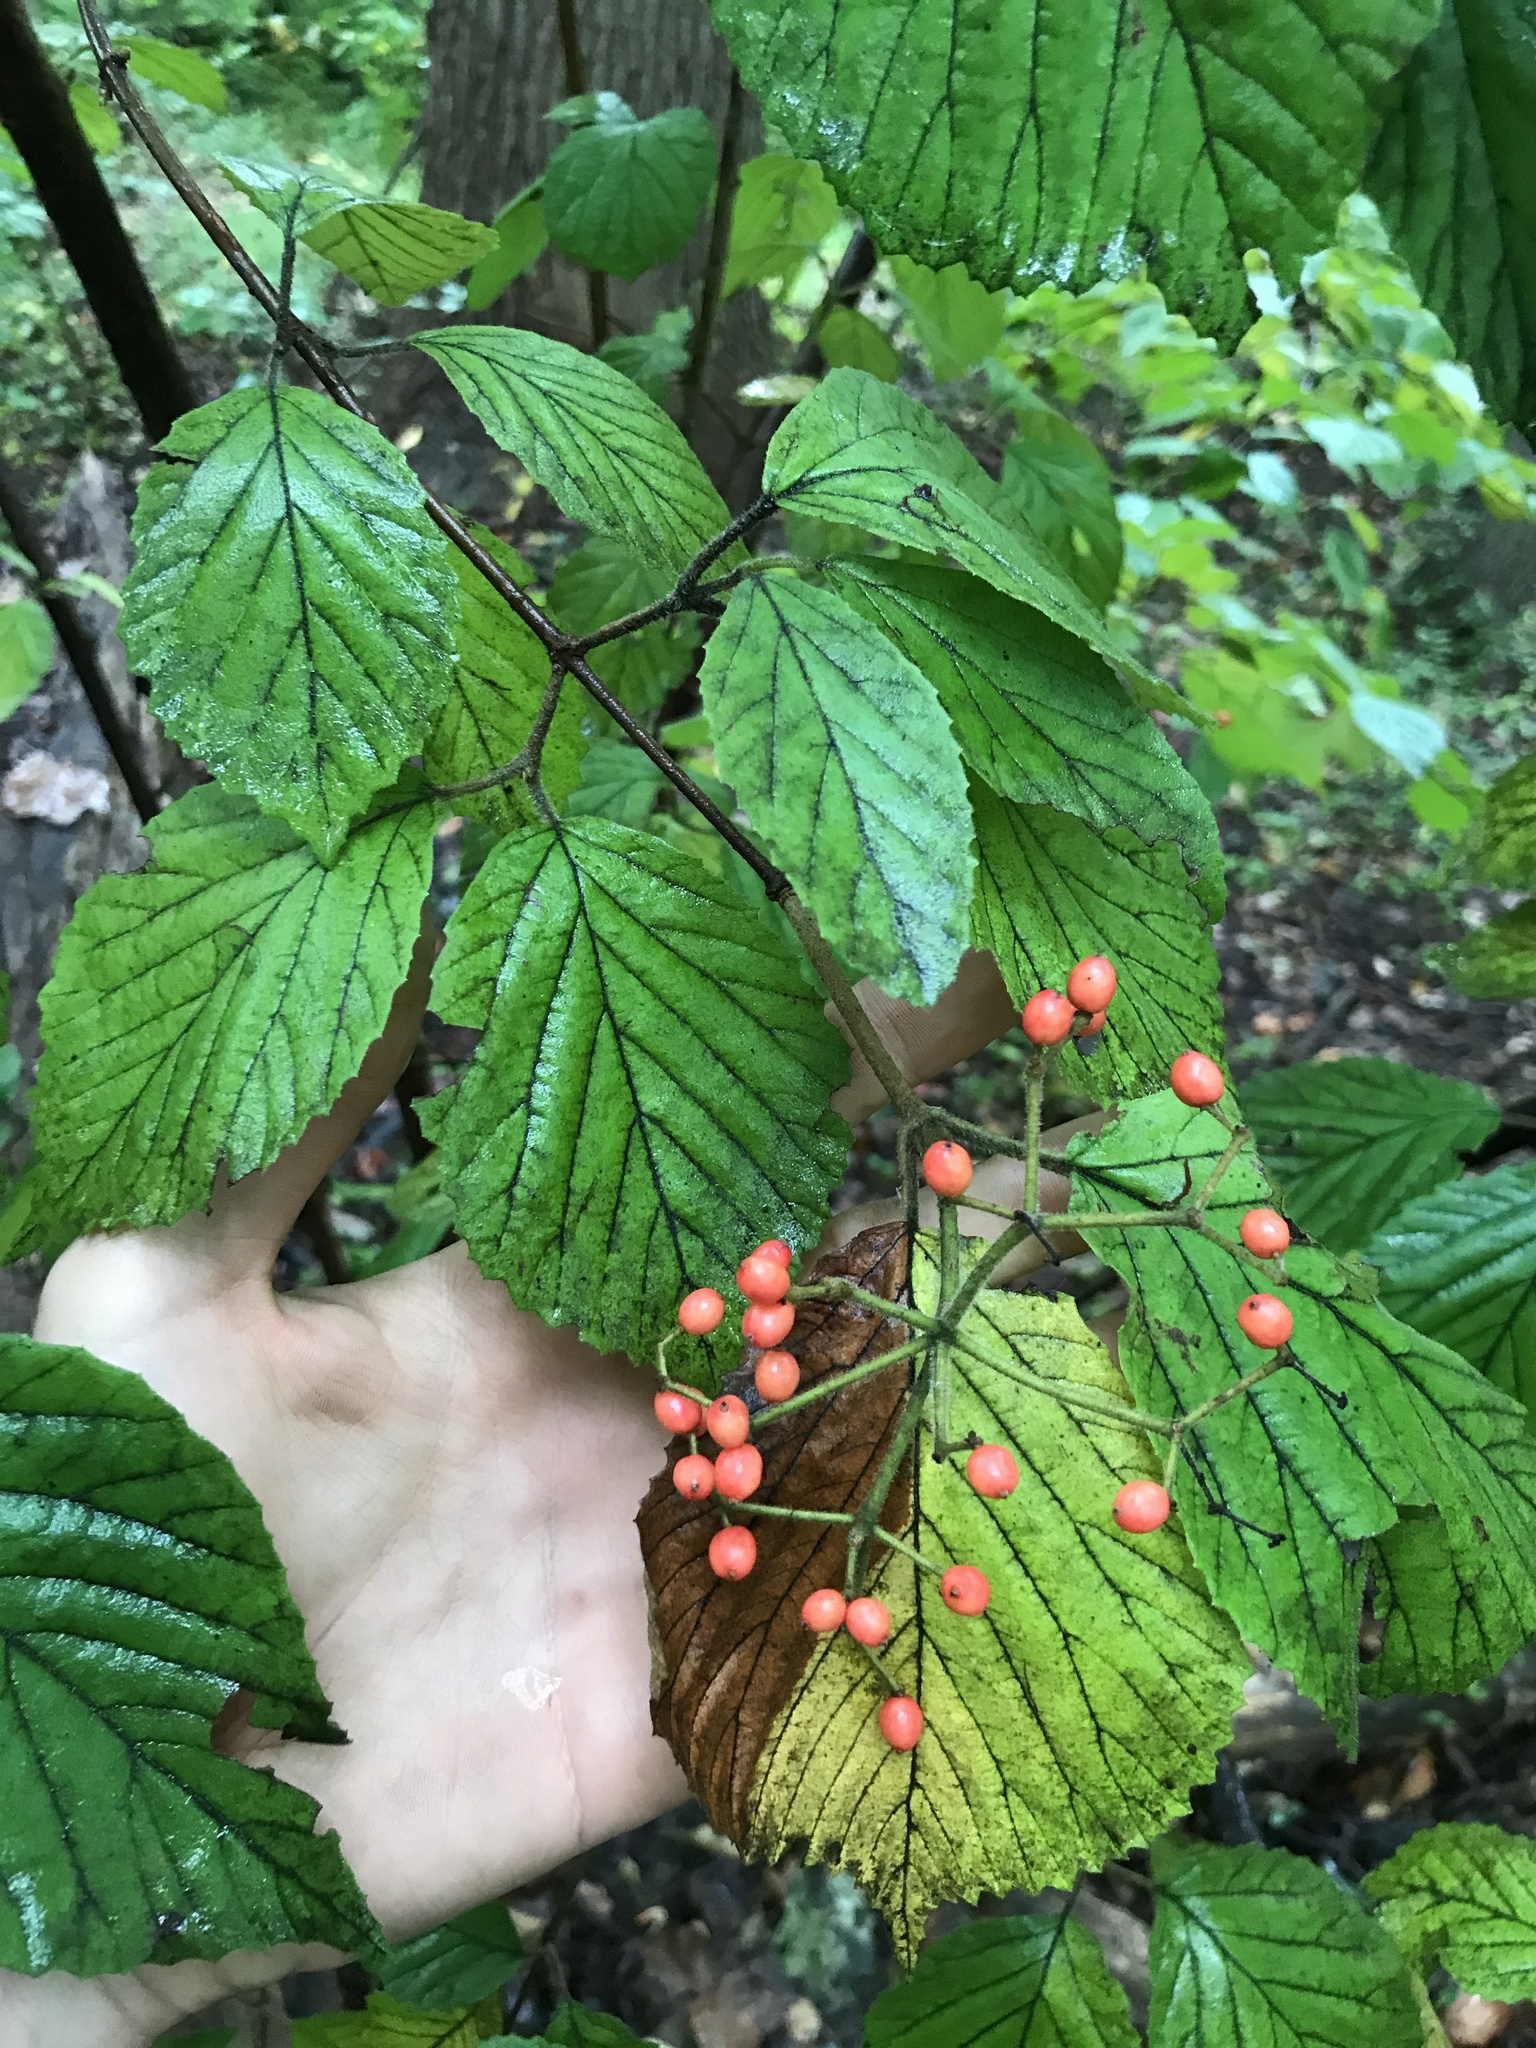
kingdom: Plantae
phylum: Tracheophyta
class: Magnoliopsida
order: Dipsacales
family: Viburnaceae
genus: Viburnum
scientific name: Viburnum dilatatum
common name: Linden arrowwood
